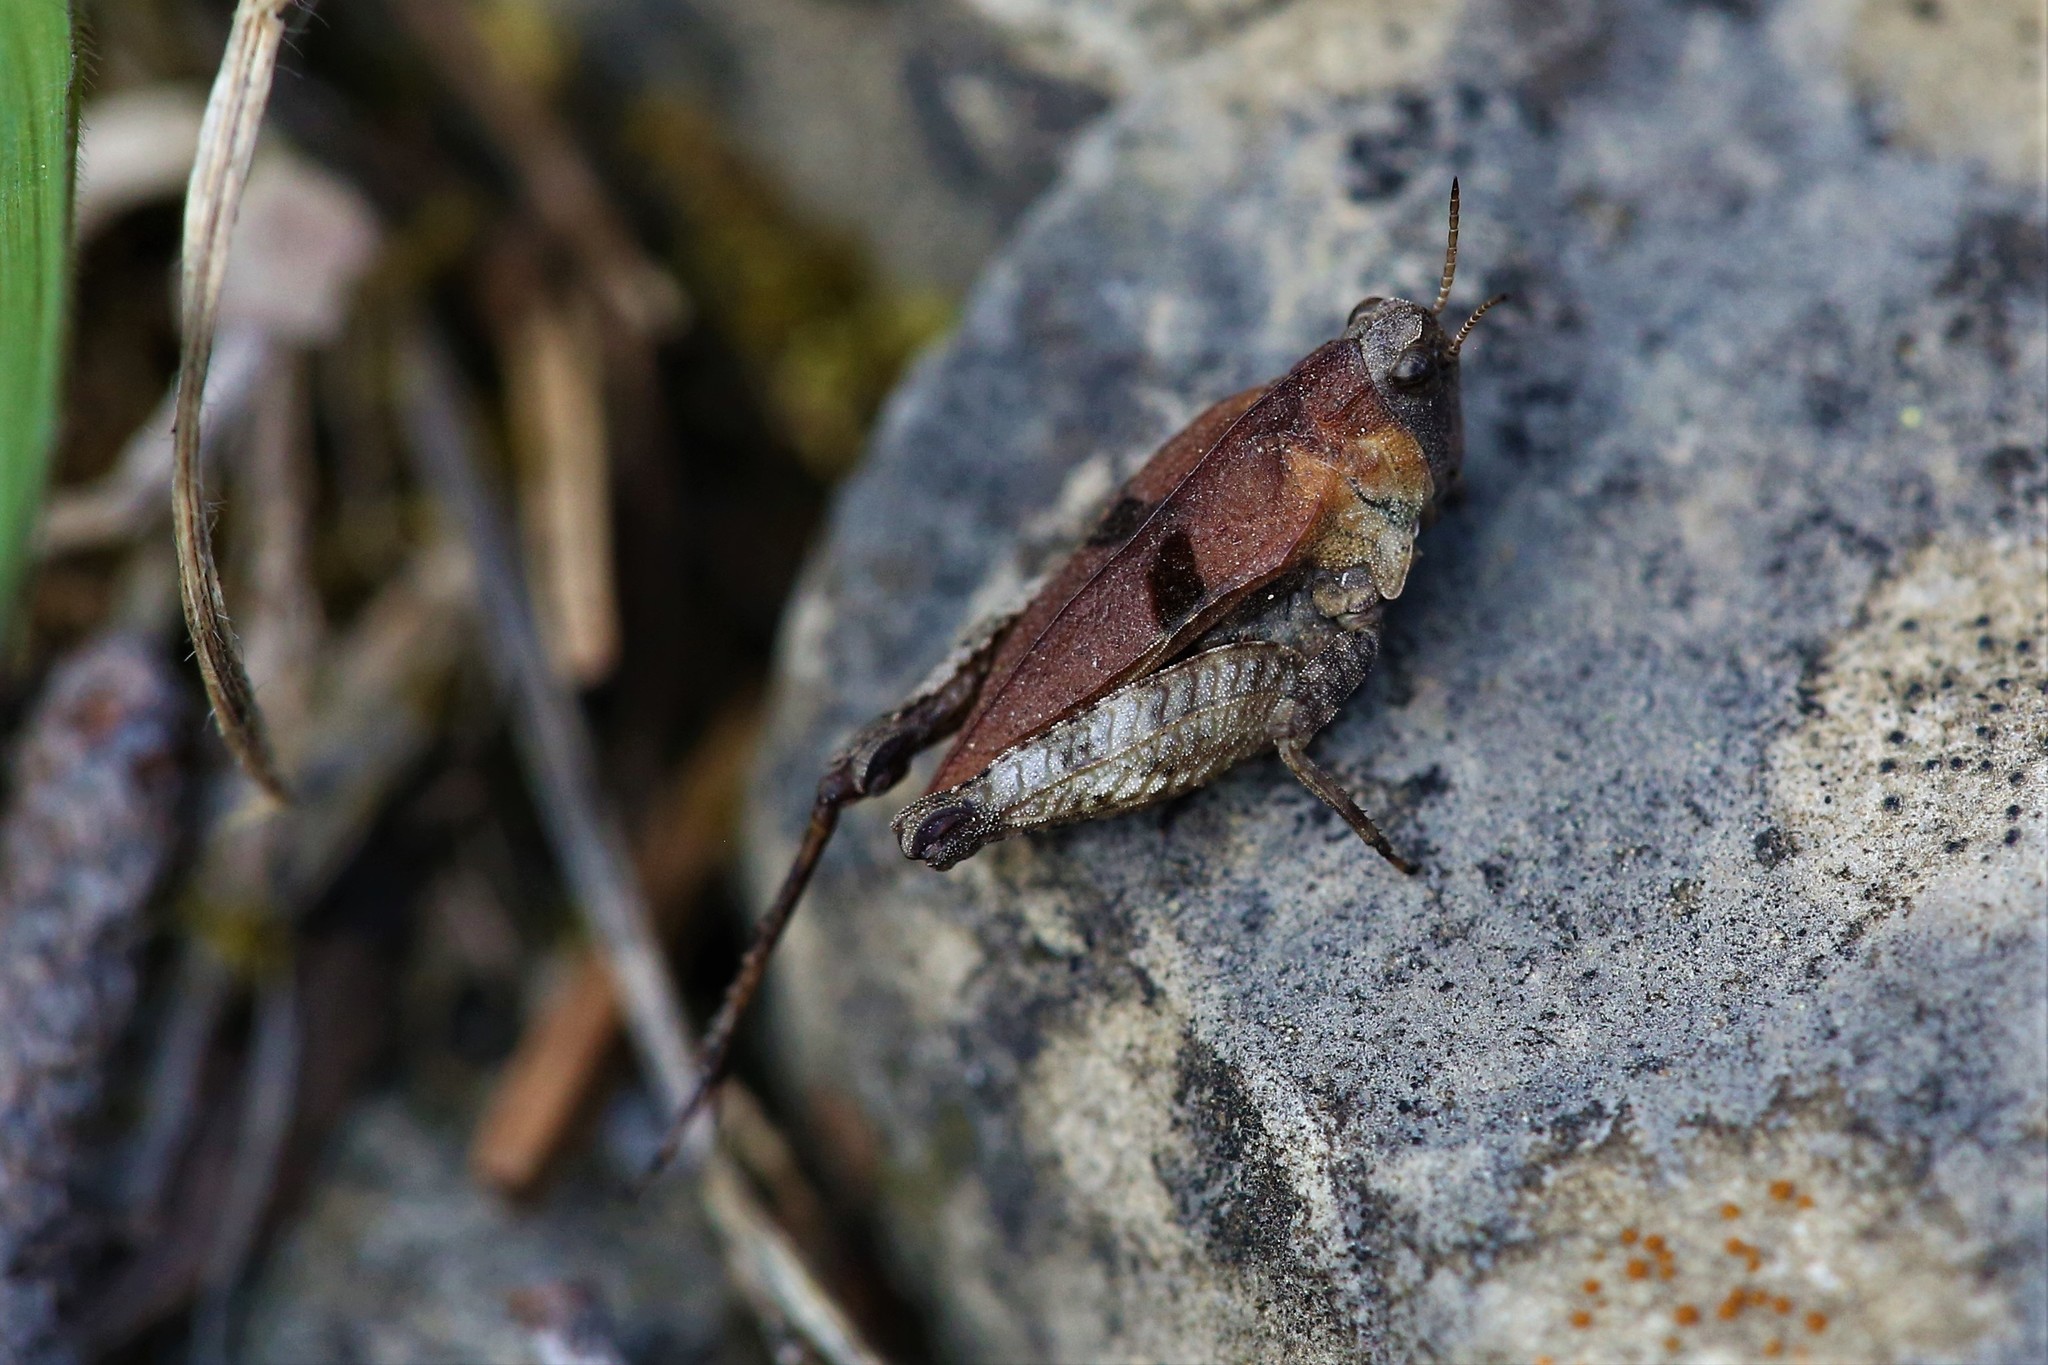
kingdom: Animalia
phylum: Arthropoda
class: Insecta
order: Orthoptera
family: Tetrigidae
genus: Tetrix
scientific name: Tetrix bipunctata
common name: Two-spotted groundhopper
